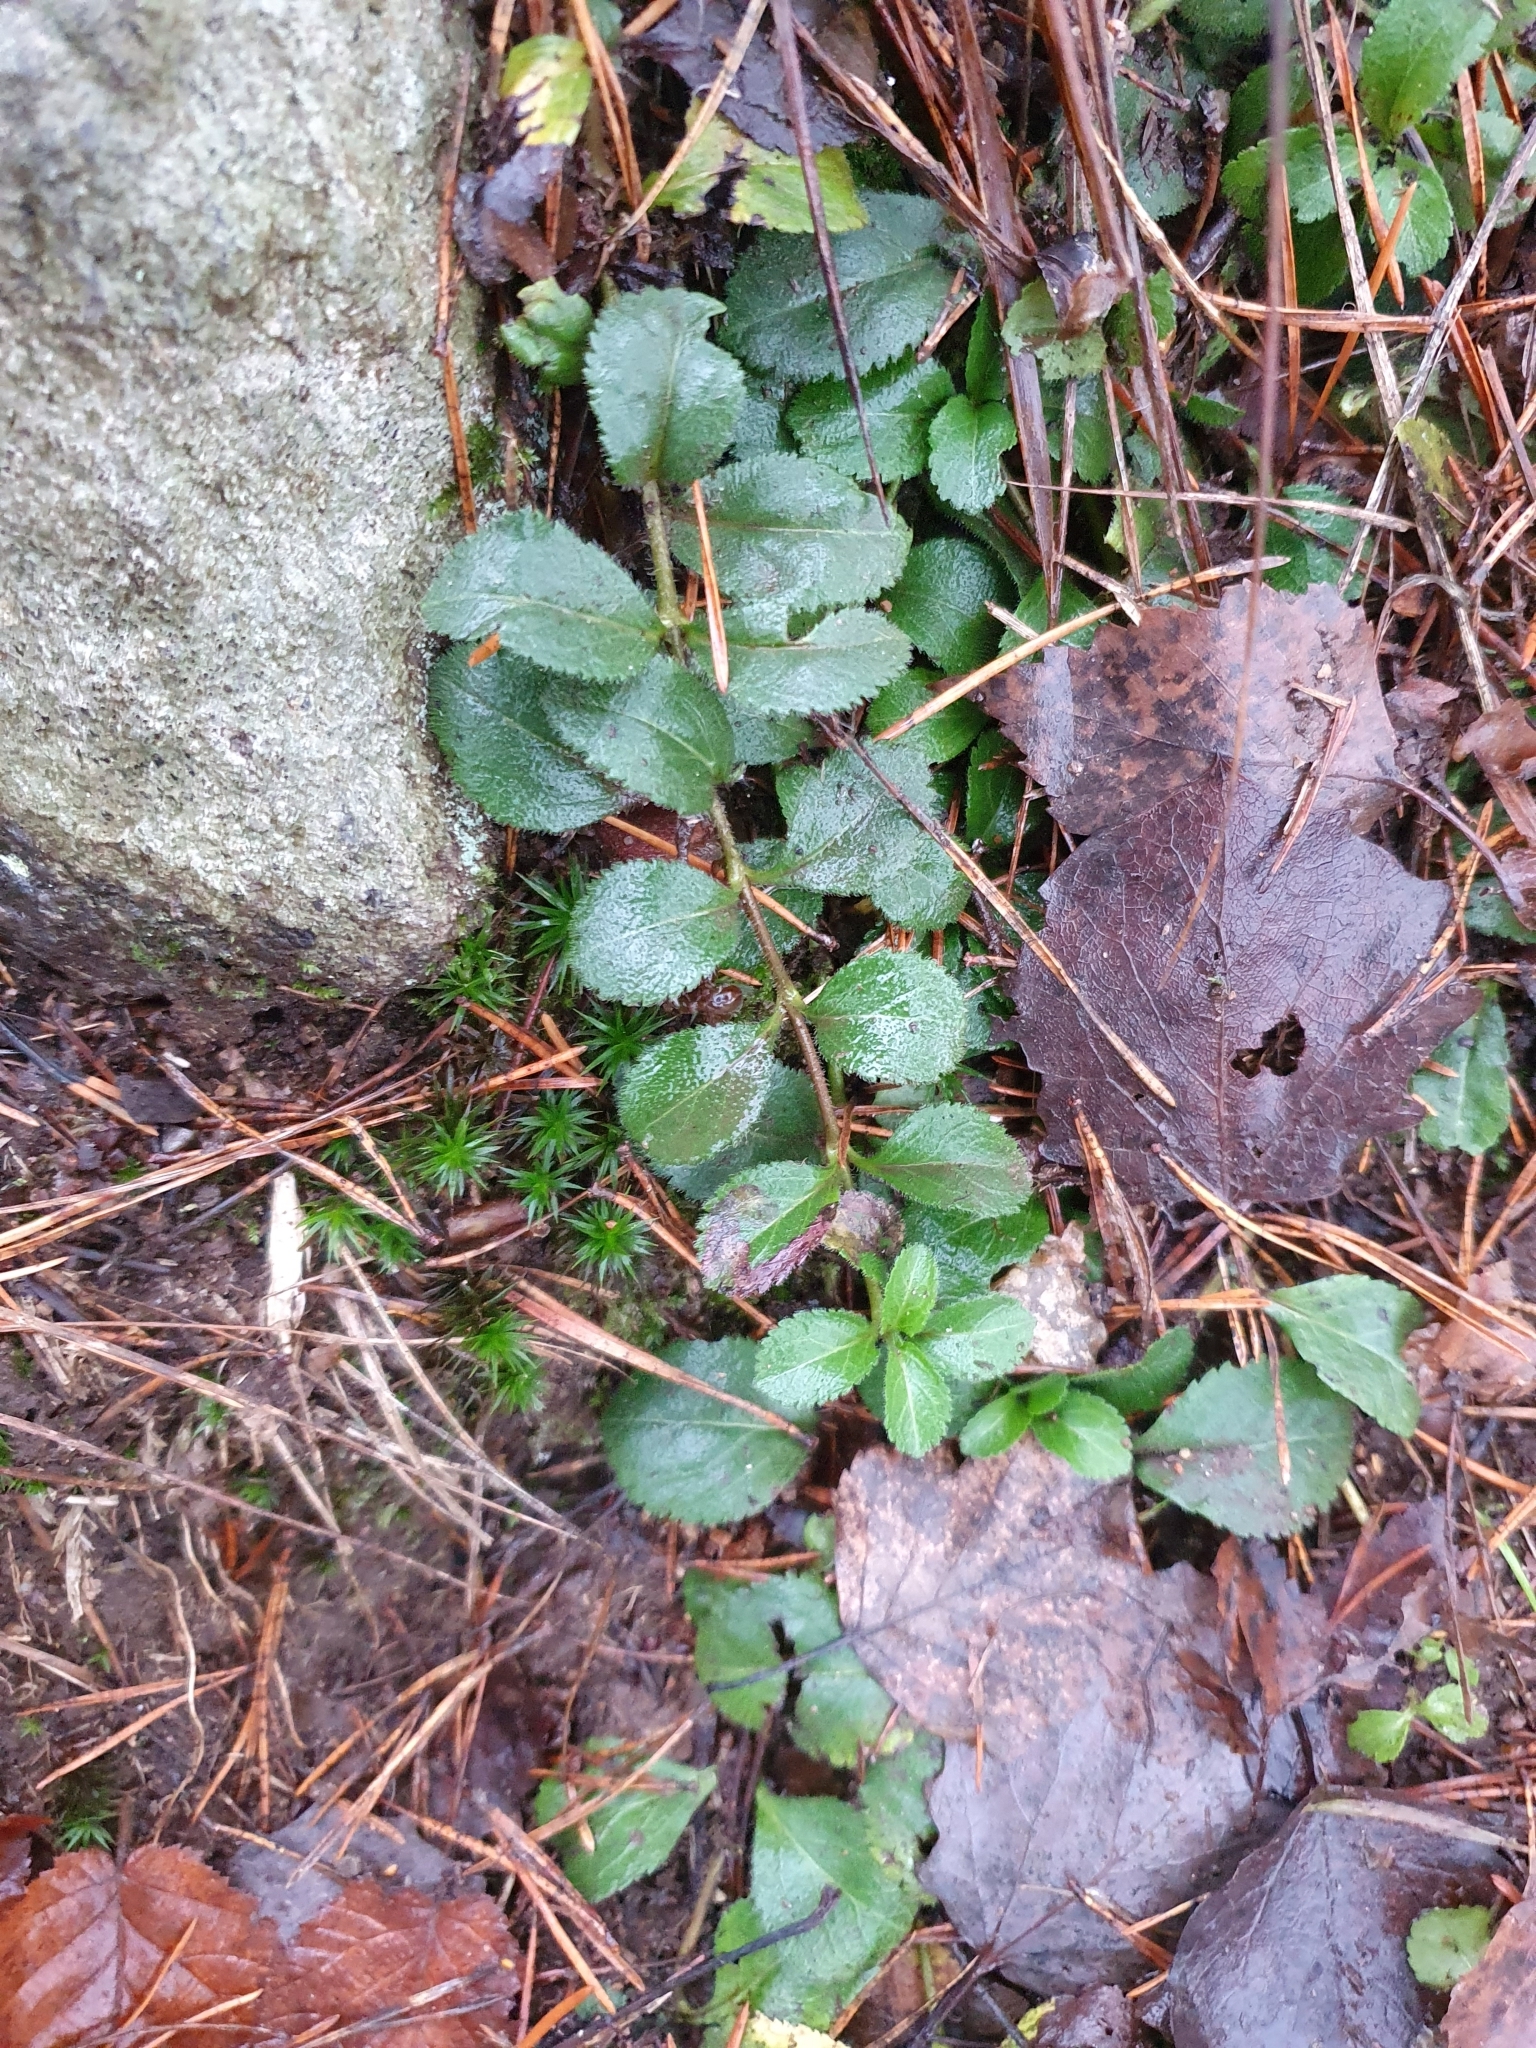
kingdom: Plantae
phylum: Tracheophyta
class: Magnoliopsida
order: Lamiales
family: Plantaginaceae
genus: Veronica
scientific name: Veronica officinalis
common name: Common speedwell
